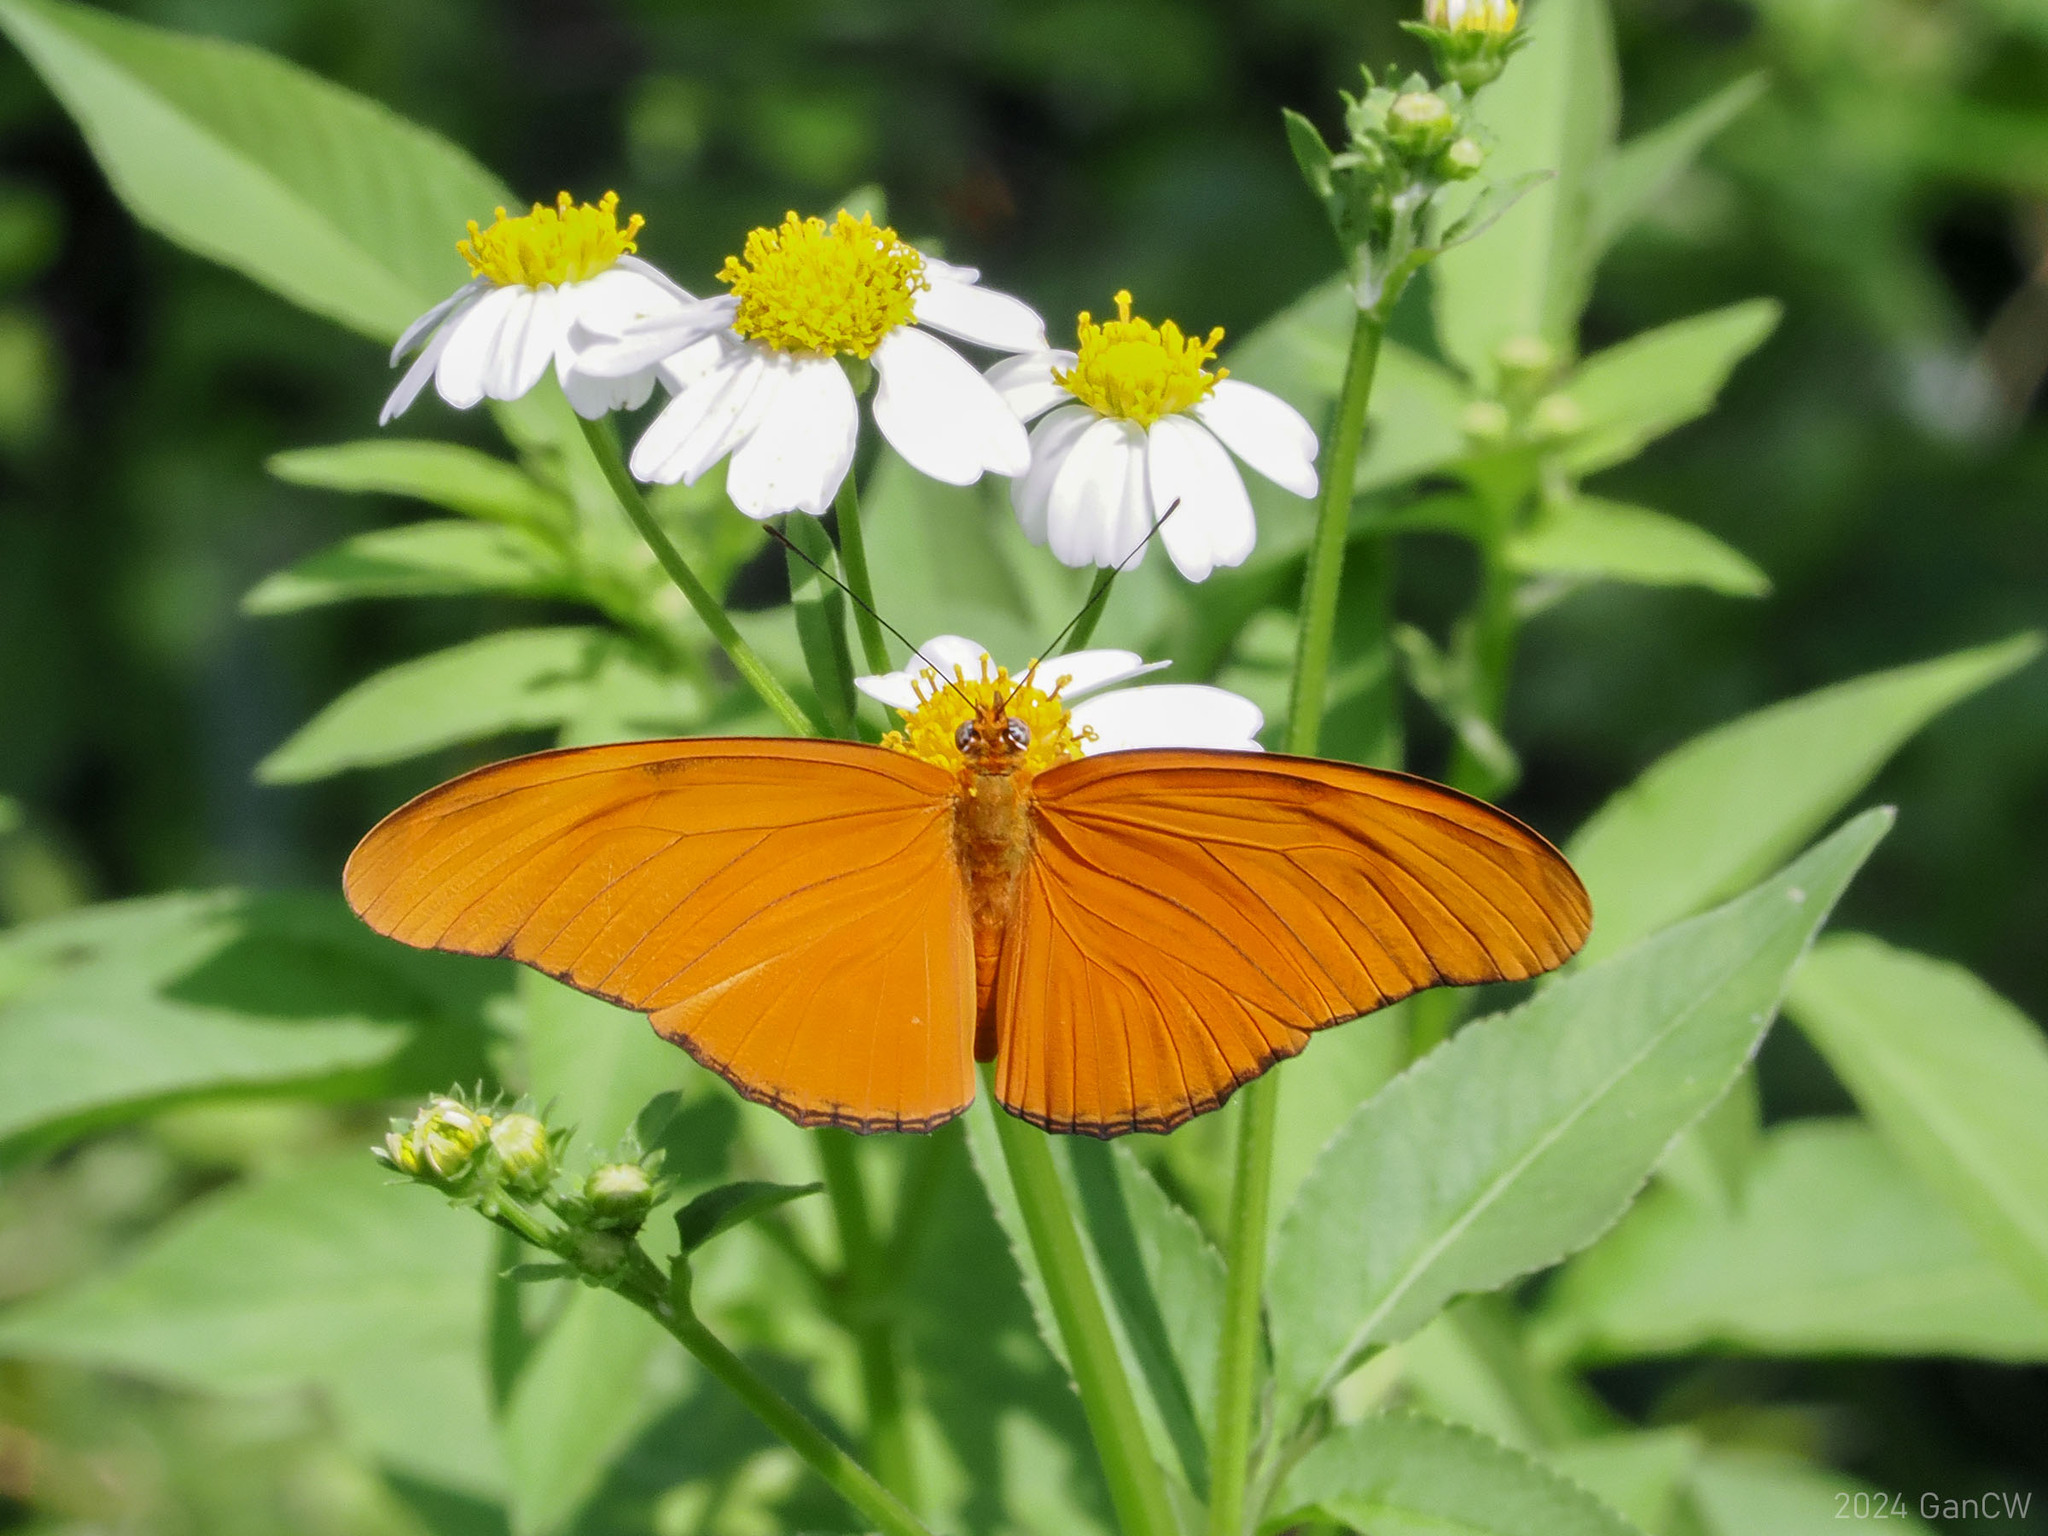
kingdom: Animalia
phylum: Arthropoda
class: Insecta
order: Lepidoptera
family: Nymphalidae
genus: Dryas
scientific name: Dryas iulia
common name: Flambeau
